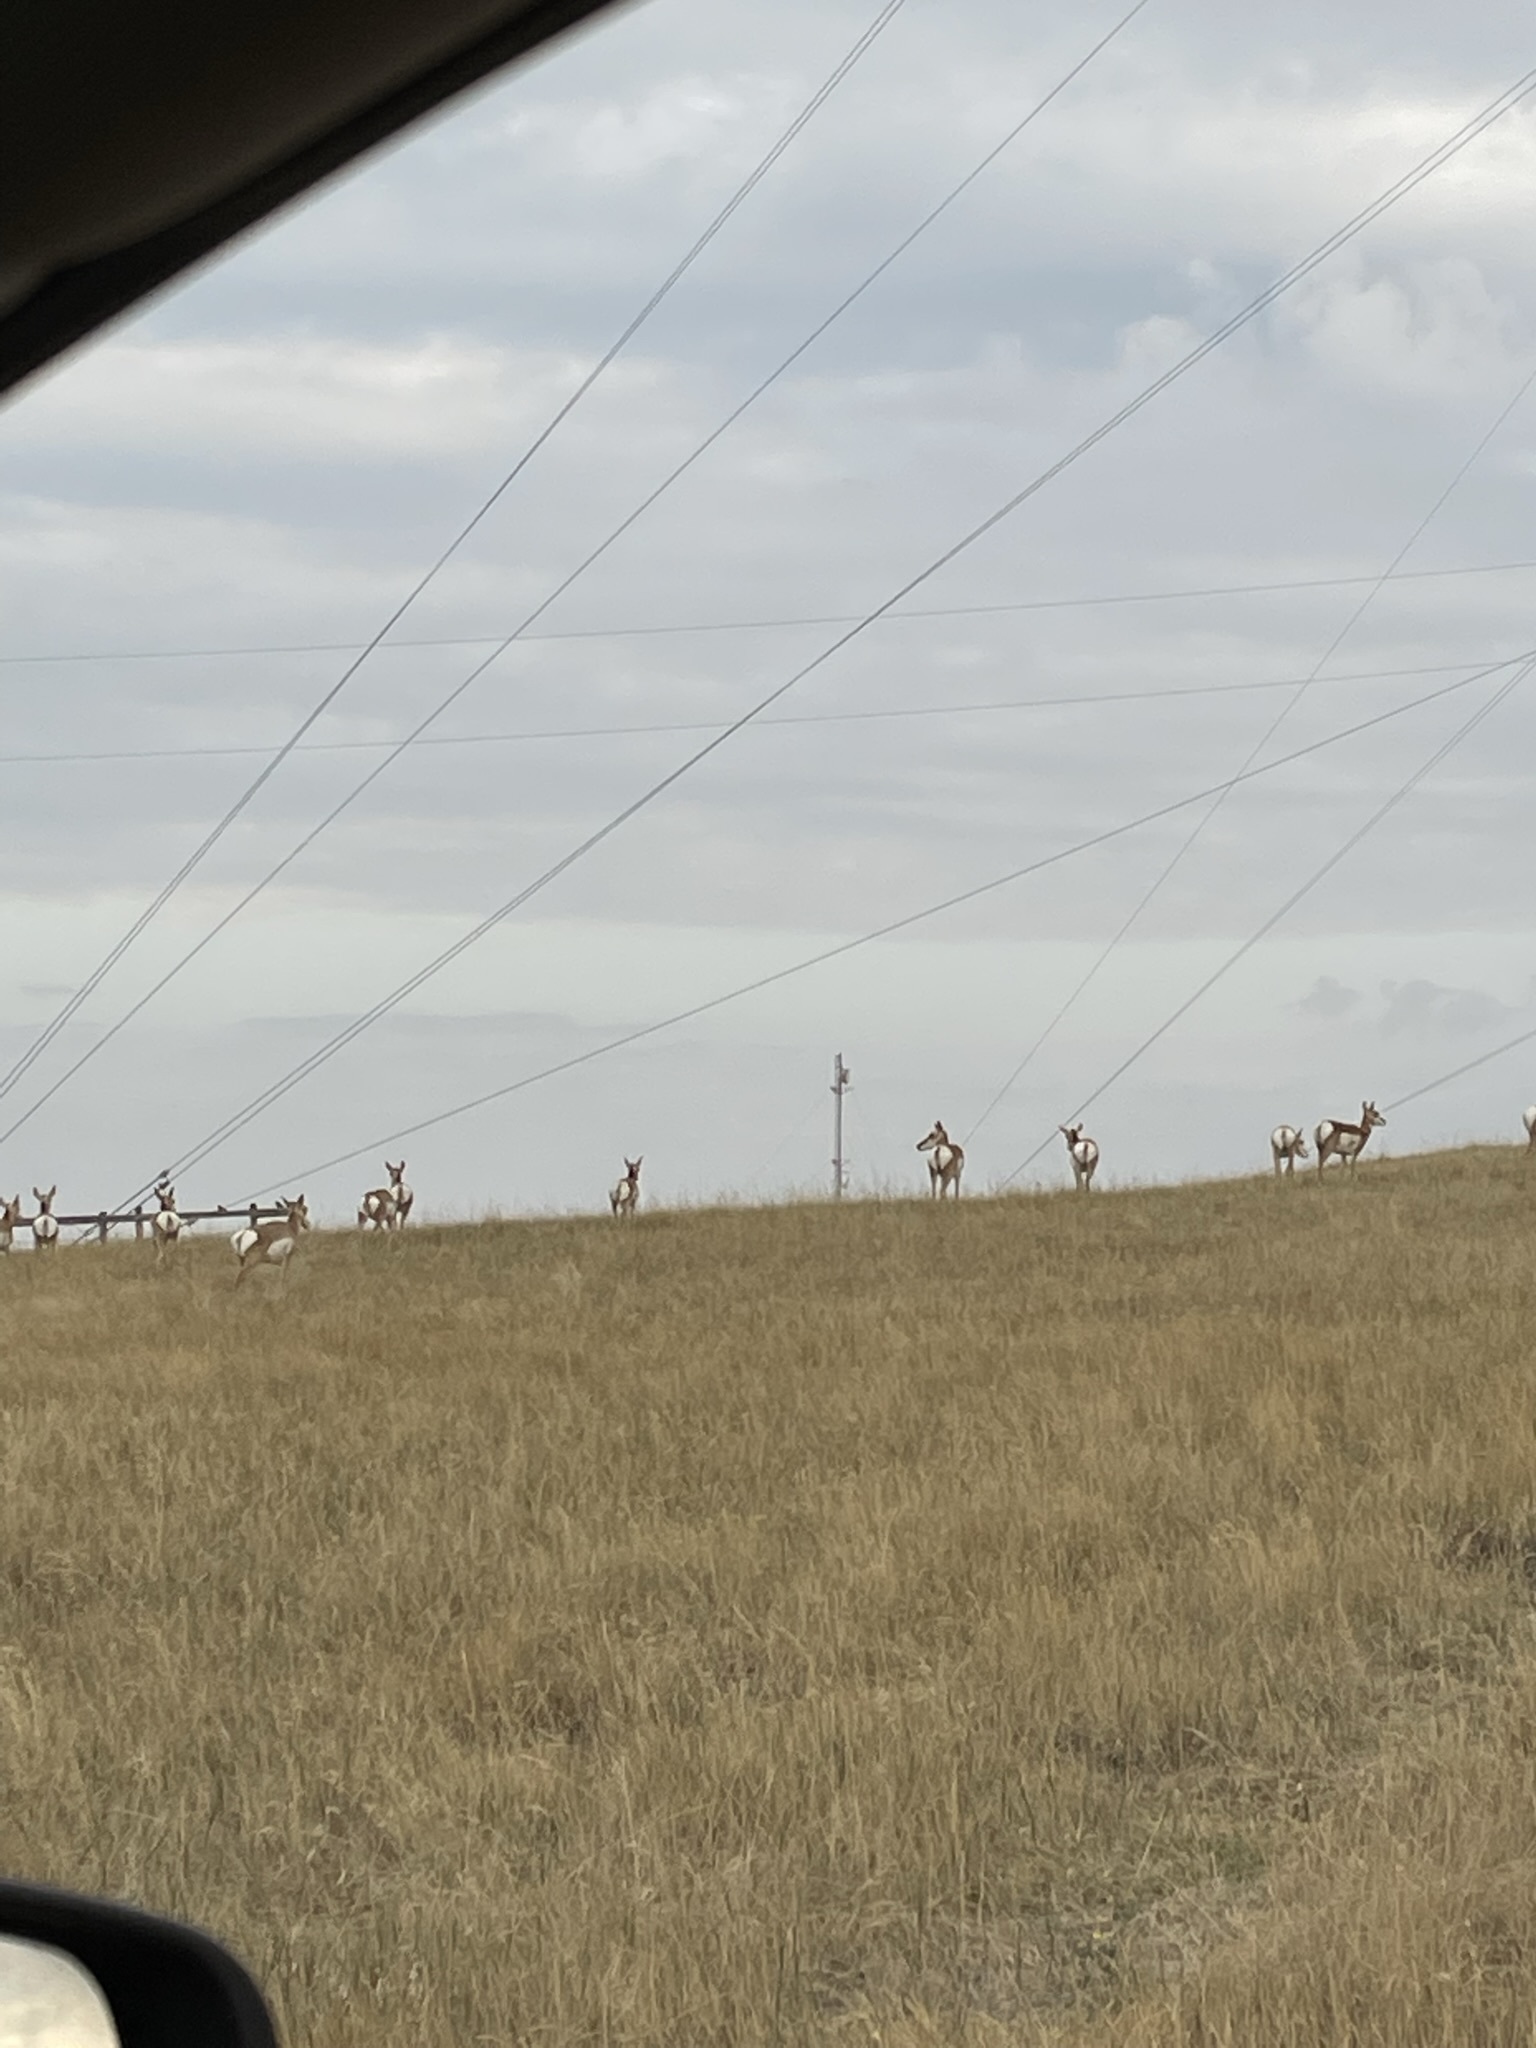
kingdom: Animalia
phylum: Chordata
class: Mammalia
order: Artiodactyla
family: Antilocapridae
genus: Antilocapra
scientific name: Antilocapra americana
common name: Pronghorn
